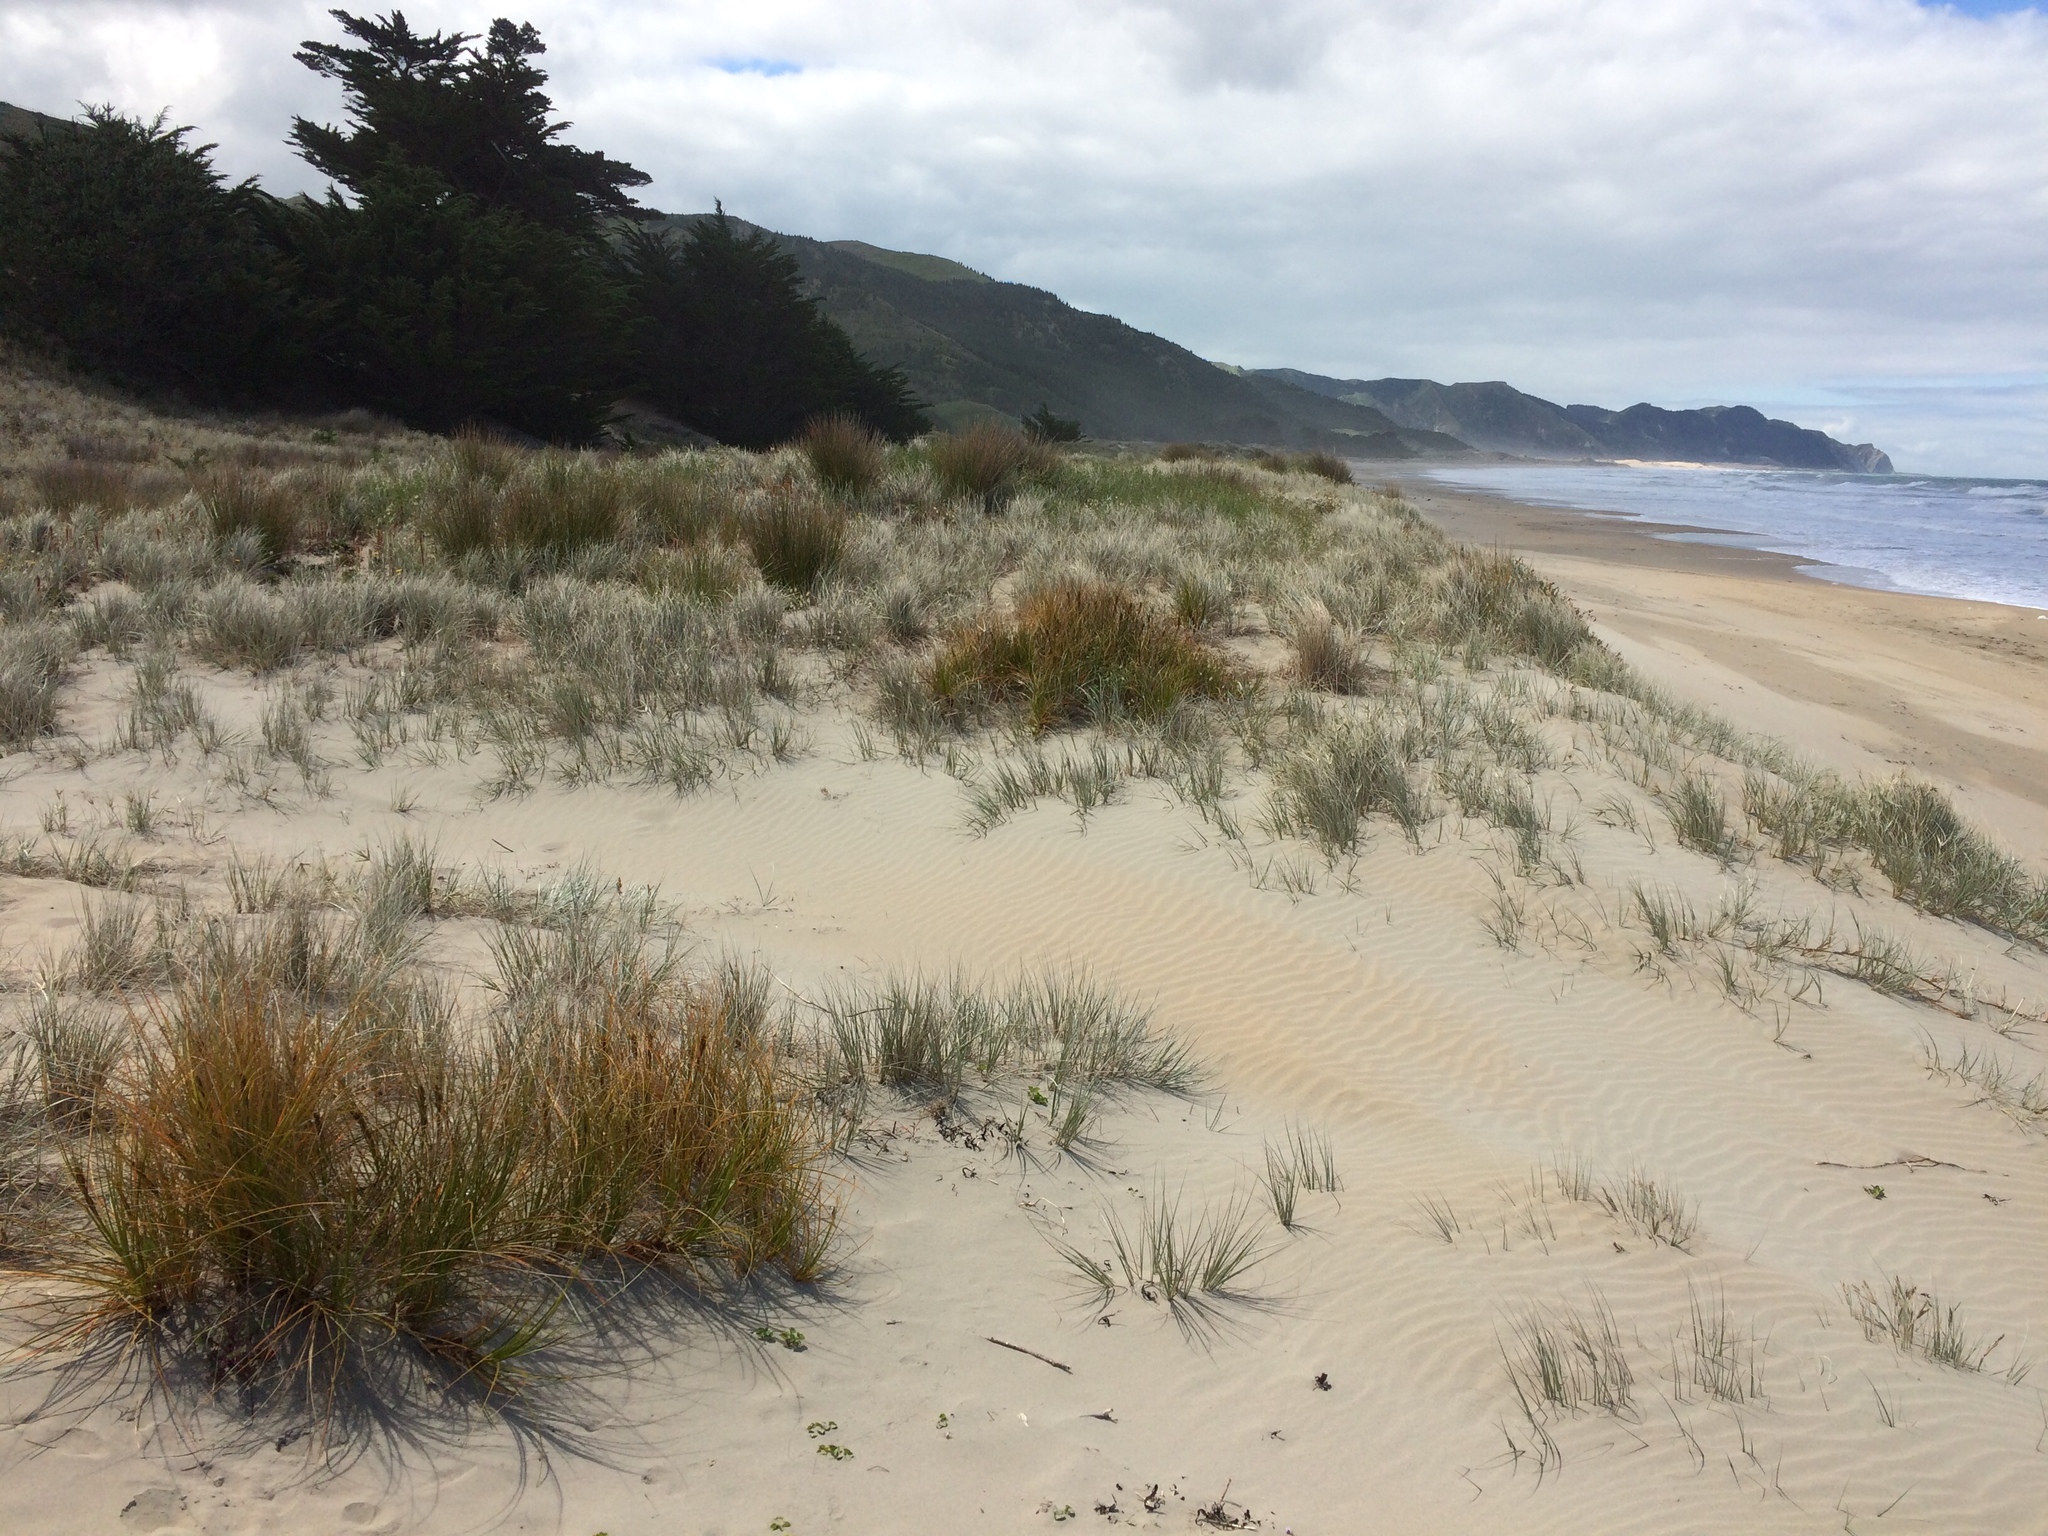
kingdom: Plantae
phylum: Tracheophyta
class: Liliopsida
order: Poales
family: Cyperaceae
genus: Ficinia
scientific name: Ficinia spiralis
